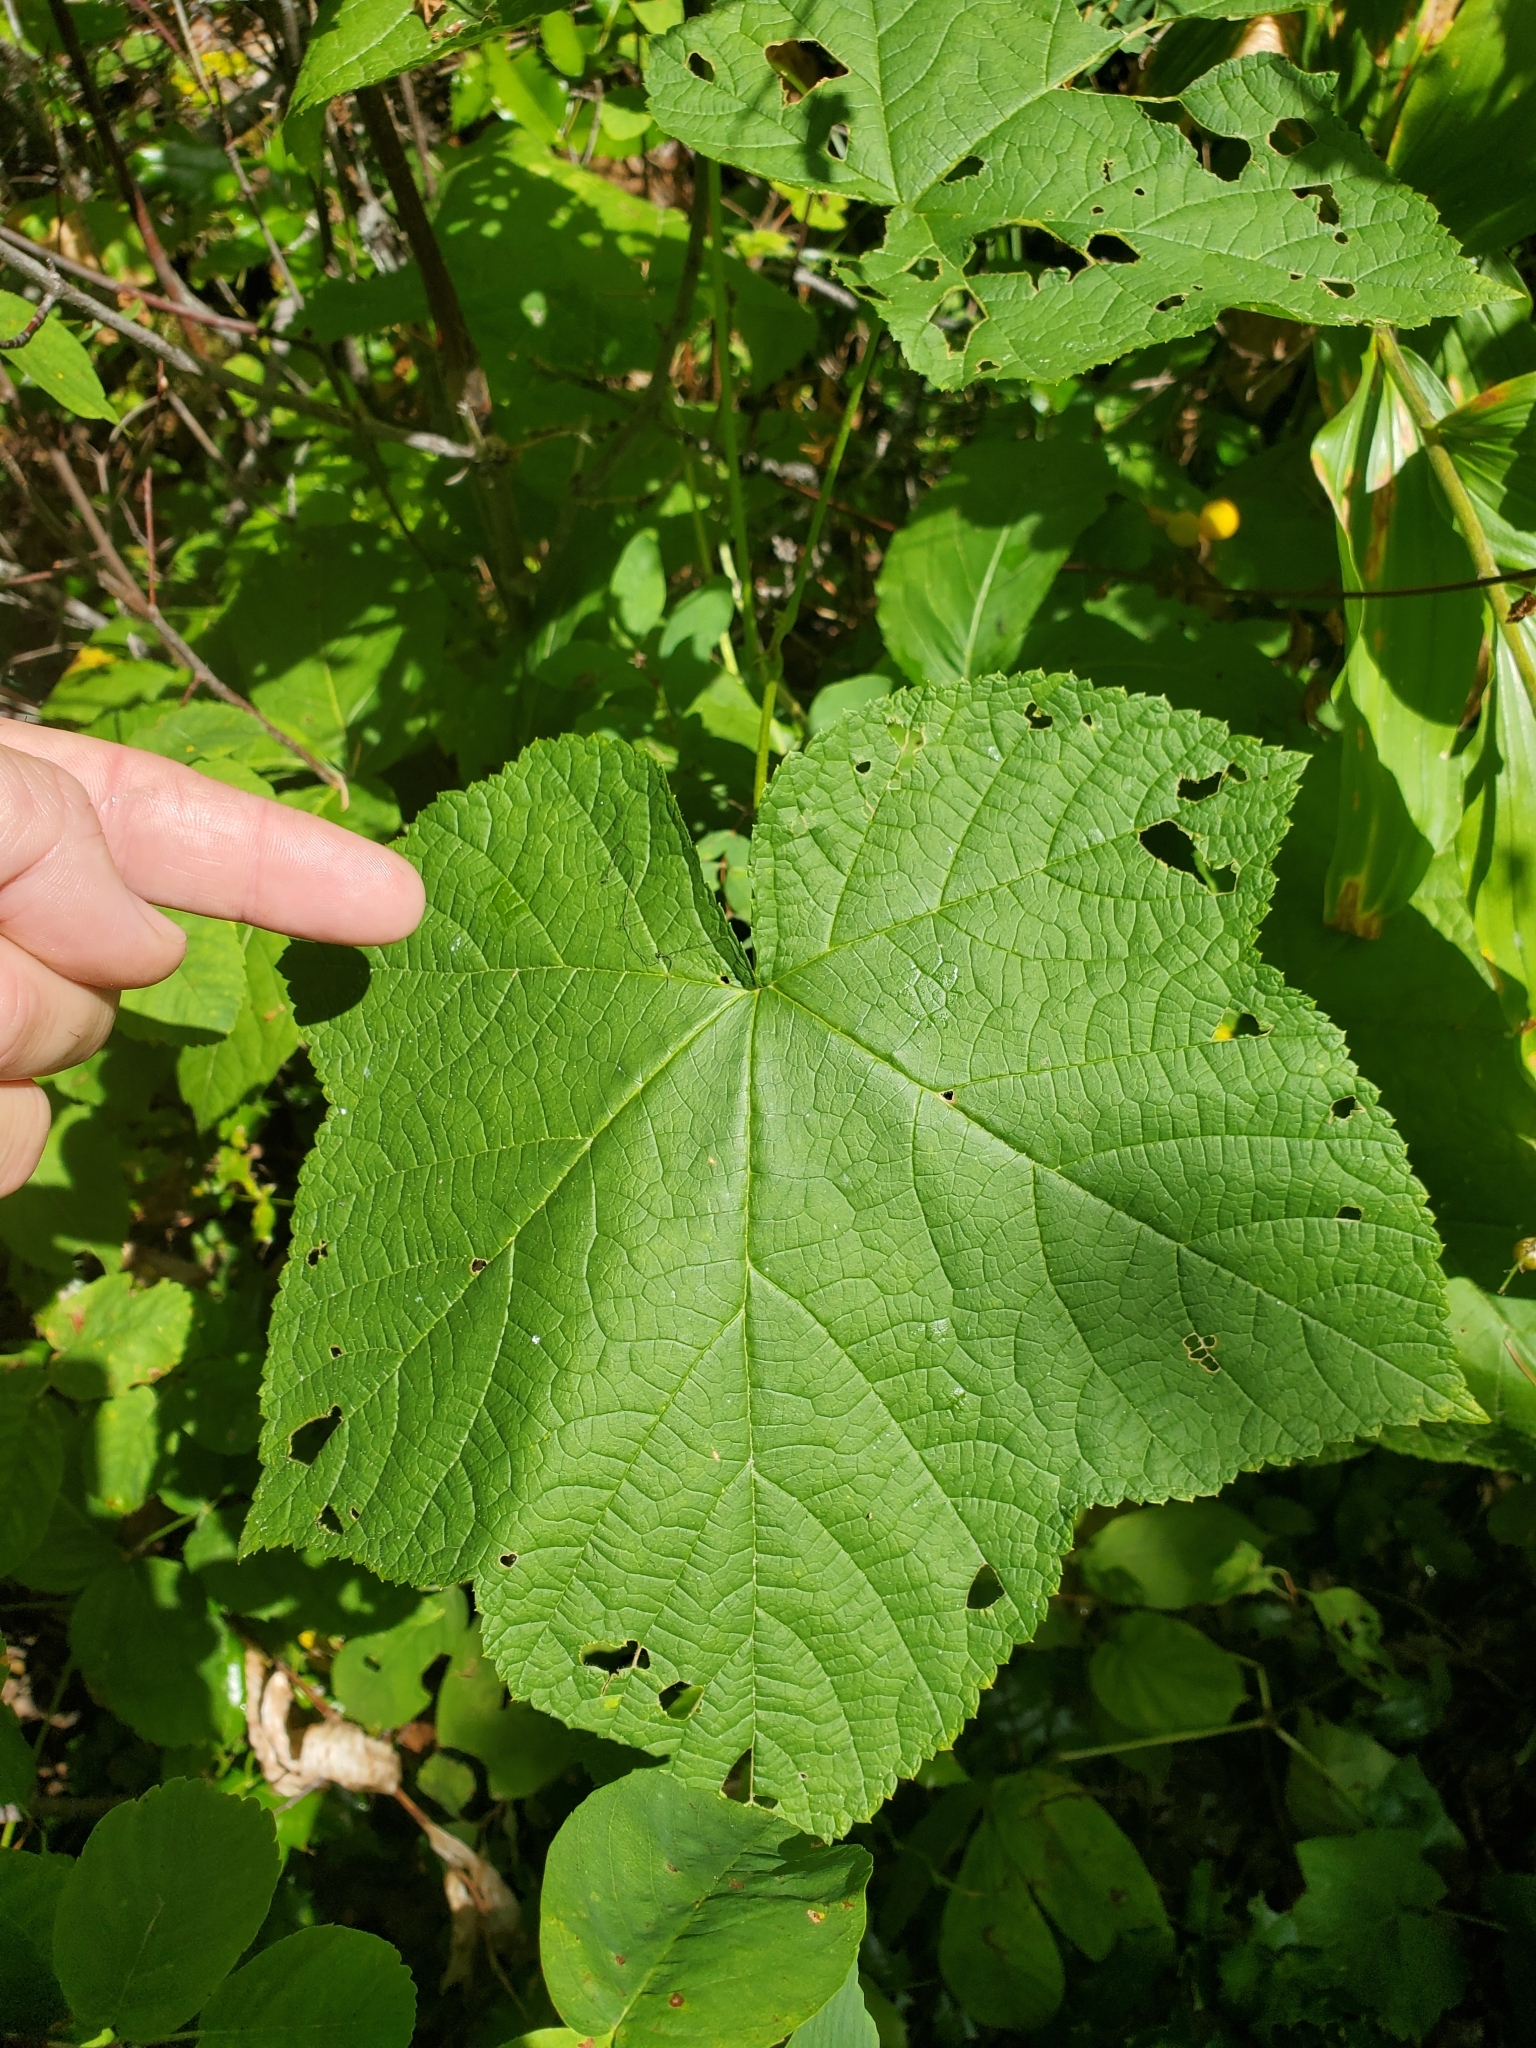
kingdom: Plantae
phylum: Tracheophyta
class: Magnoliopsida
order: Rosales
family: Rosaceae
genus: Rubus
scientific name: Rubus parviflorus
